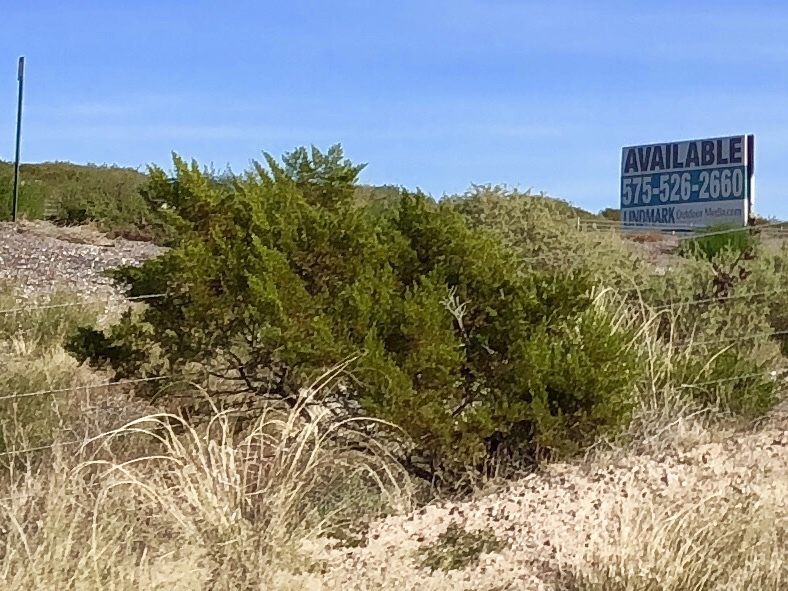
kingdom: Plantae
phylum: Tracheophyta
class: Magnoliopsida
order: Zygophyllales
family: Zygophyllaceae
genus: Larrea
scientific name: Larrea tridentata
